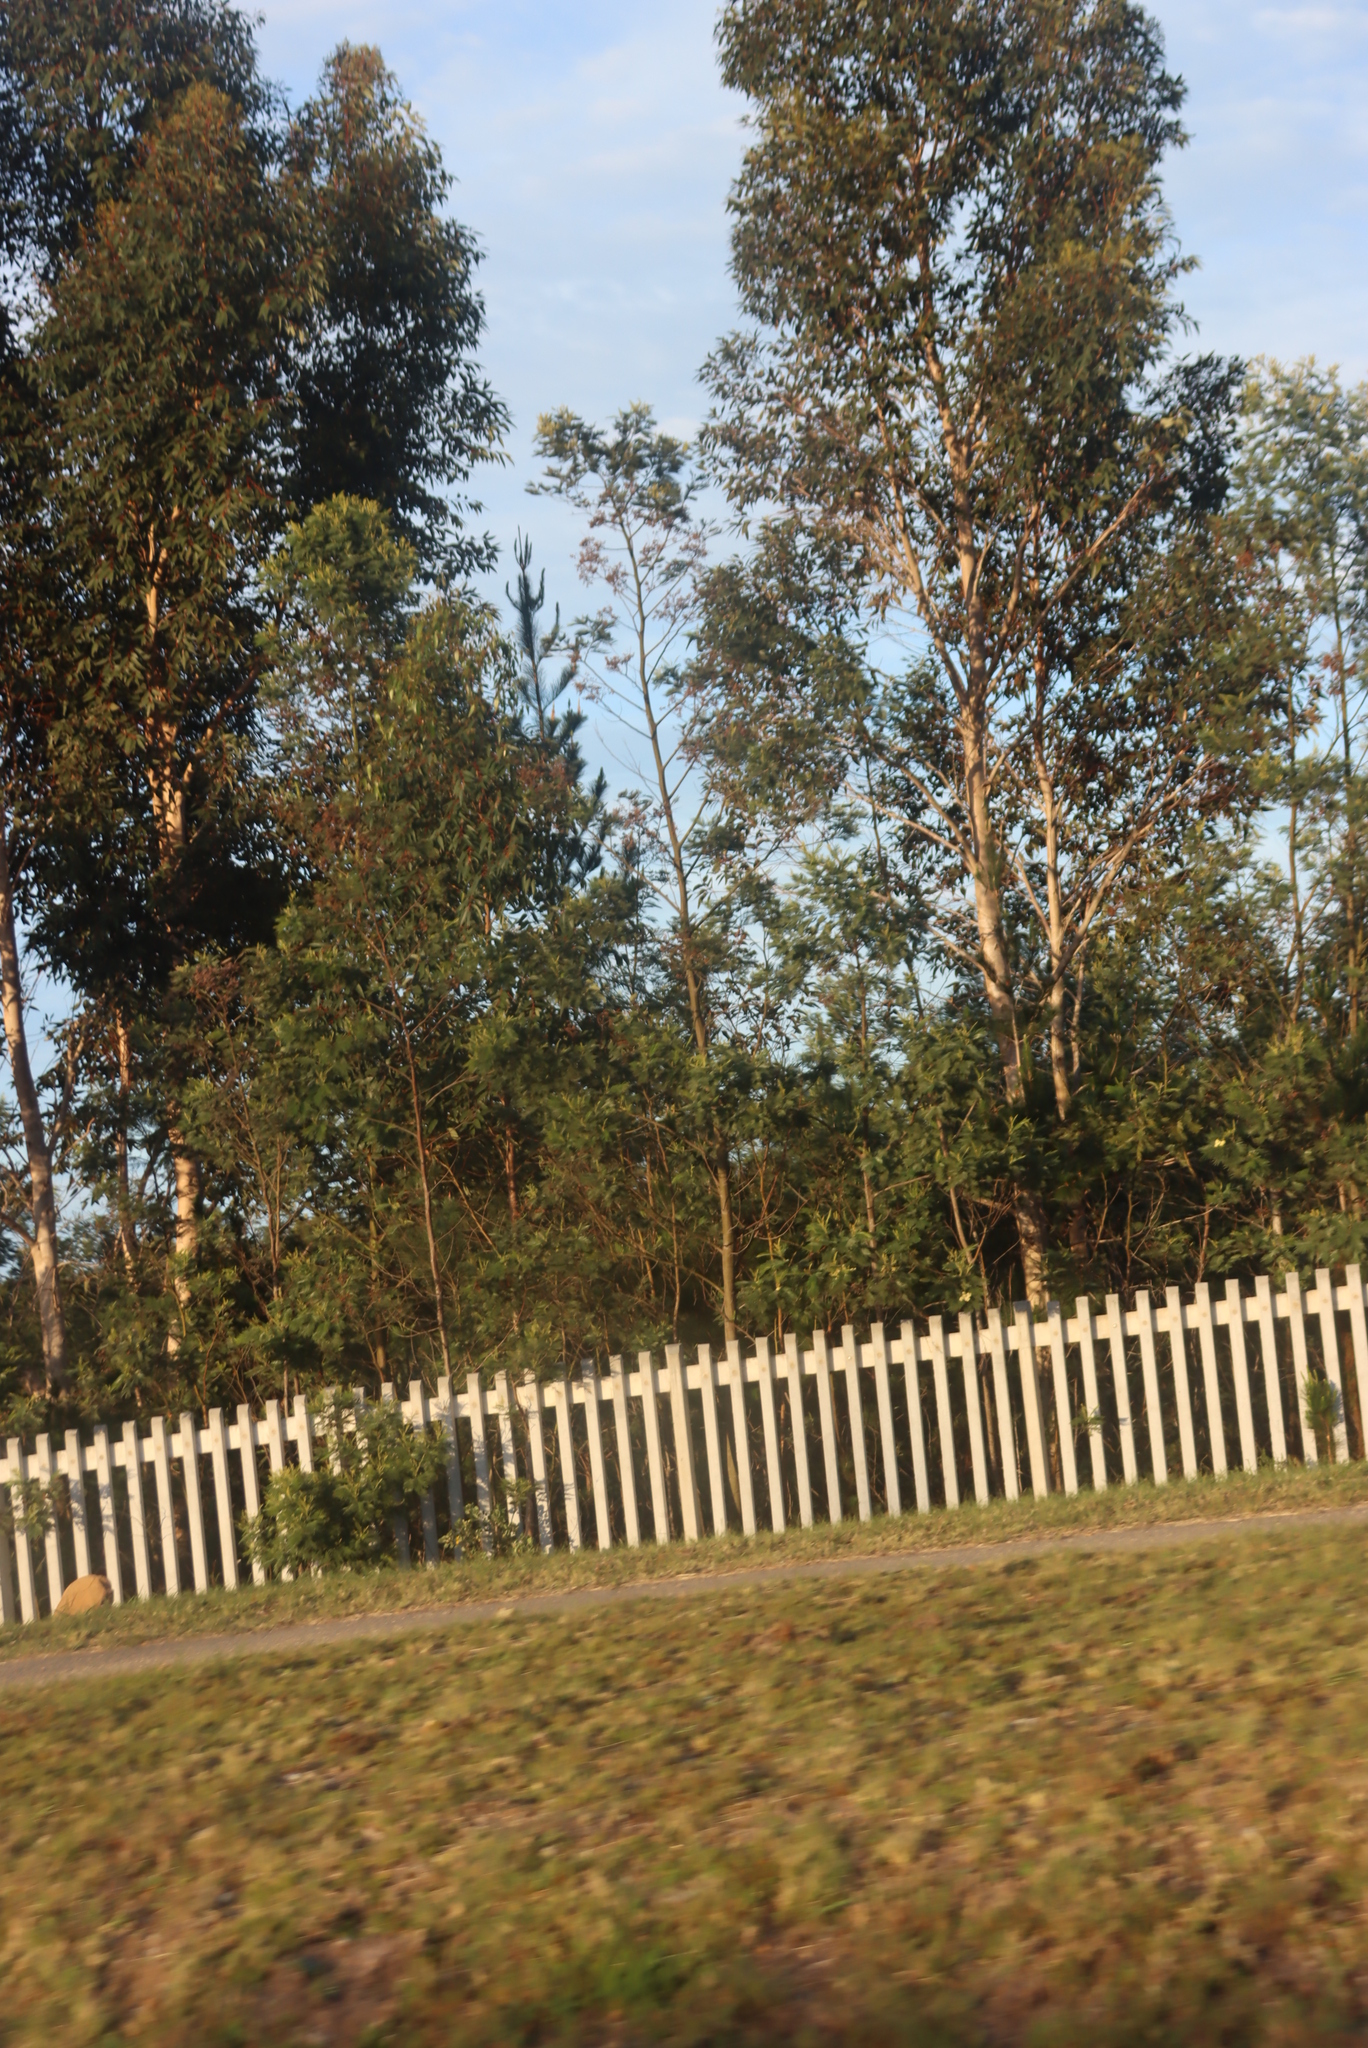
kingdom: Plantae
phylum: Tracheophyta
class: Magnoliopsida
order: Fabales
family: Fabaceae
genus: Acacia
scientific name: Acacia mearnsii
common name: Black wattle
